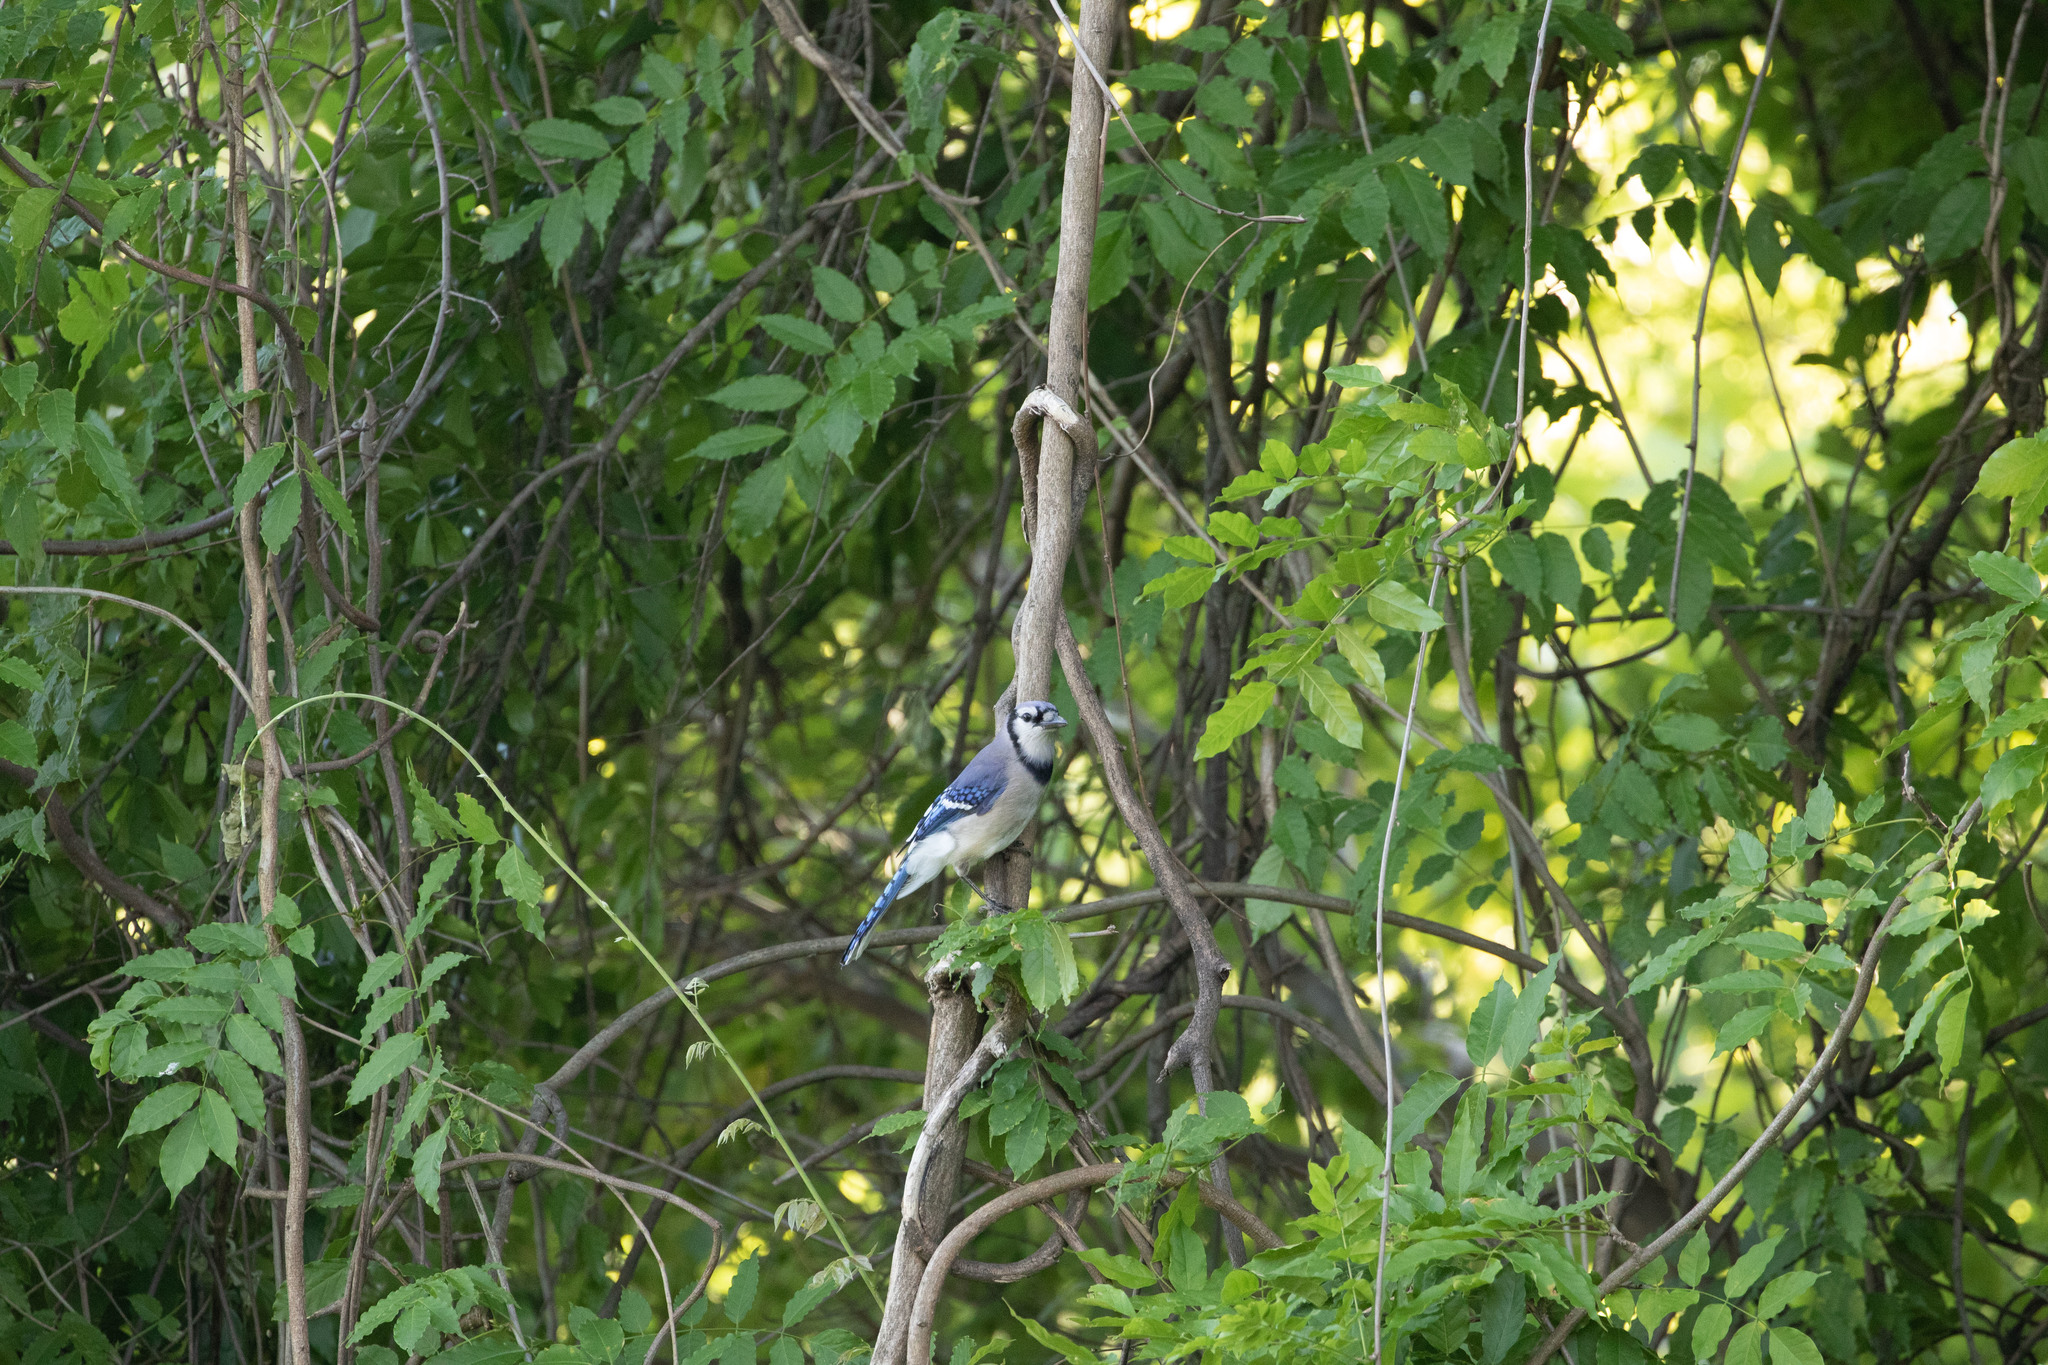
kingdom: Animalia
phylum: Chordata
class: Aves
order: Passeriformes
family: Corvidae
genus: Cyanocitta
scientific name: Cyanocitta cristata
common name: Blue jay
